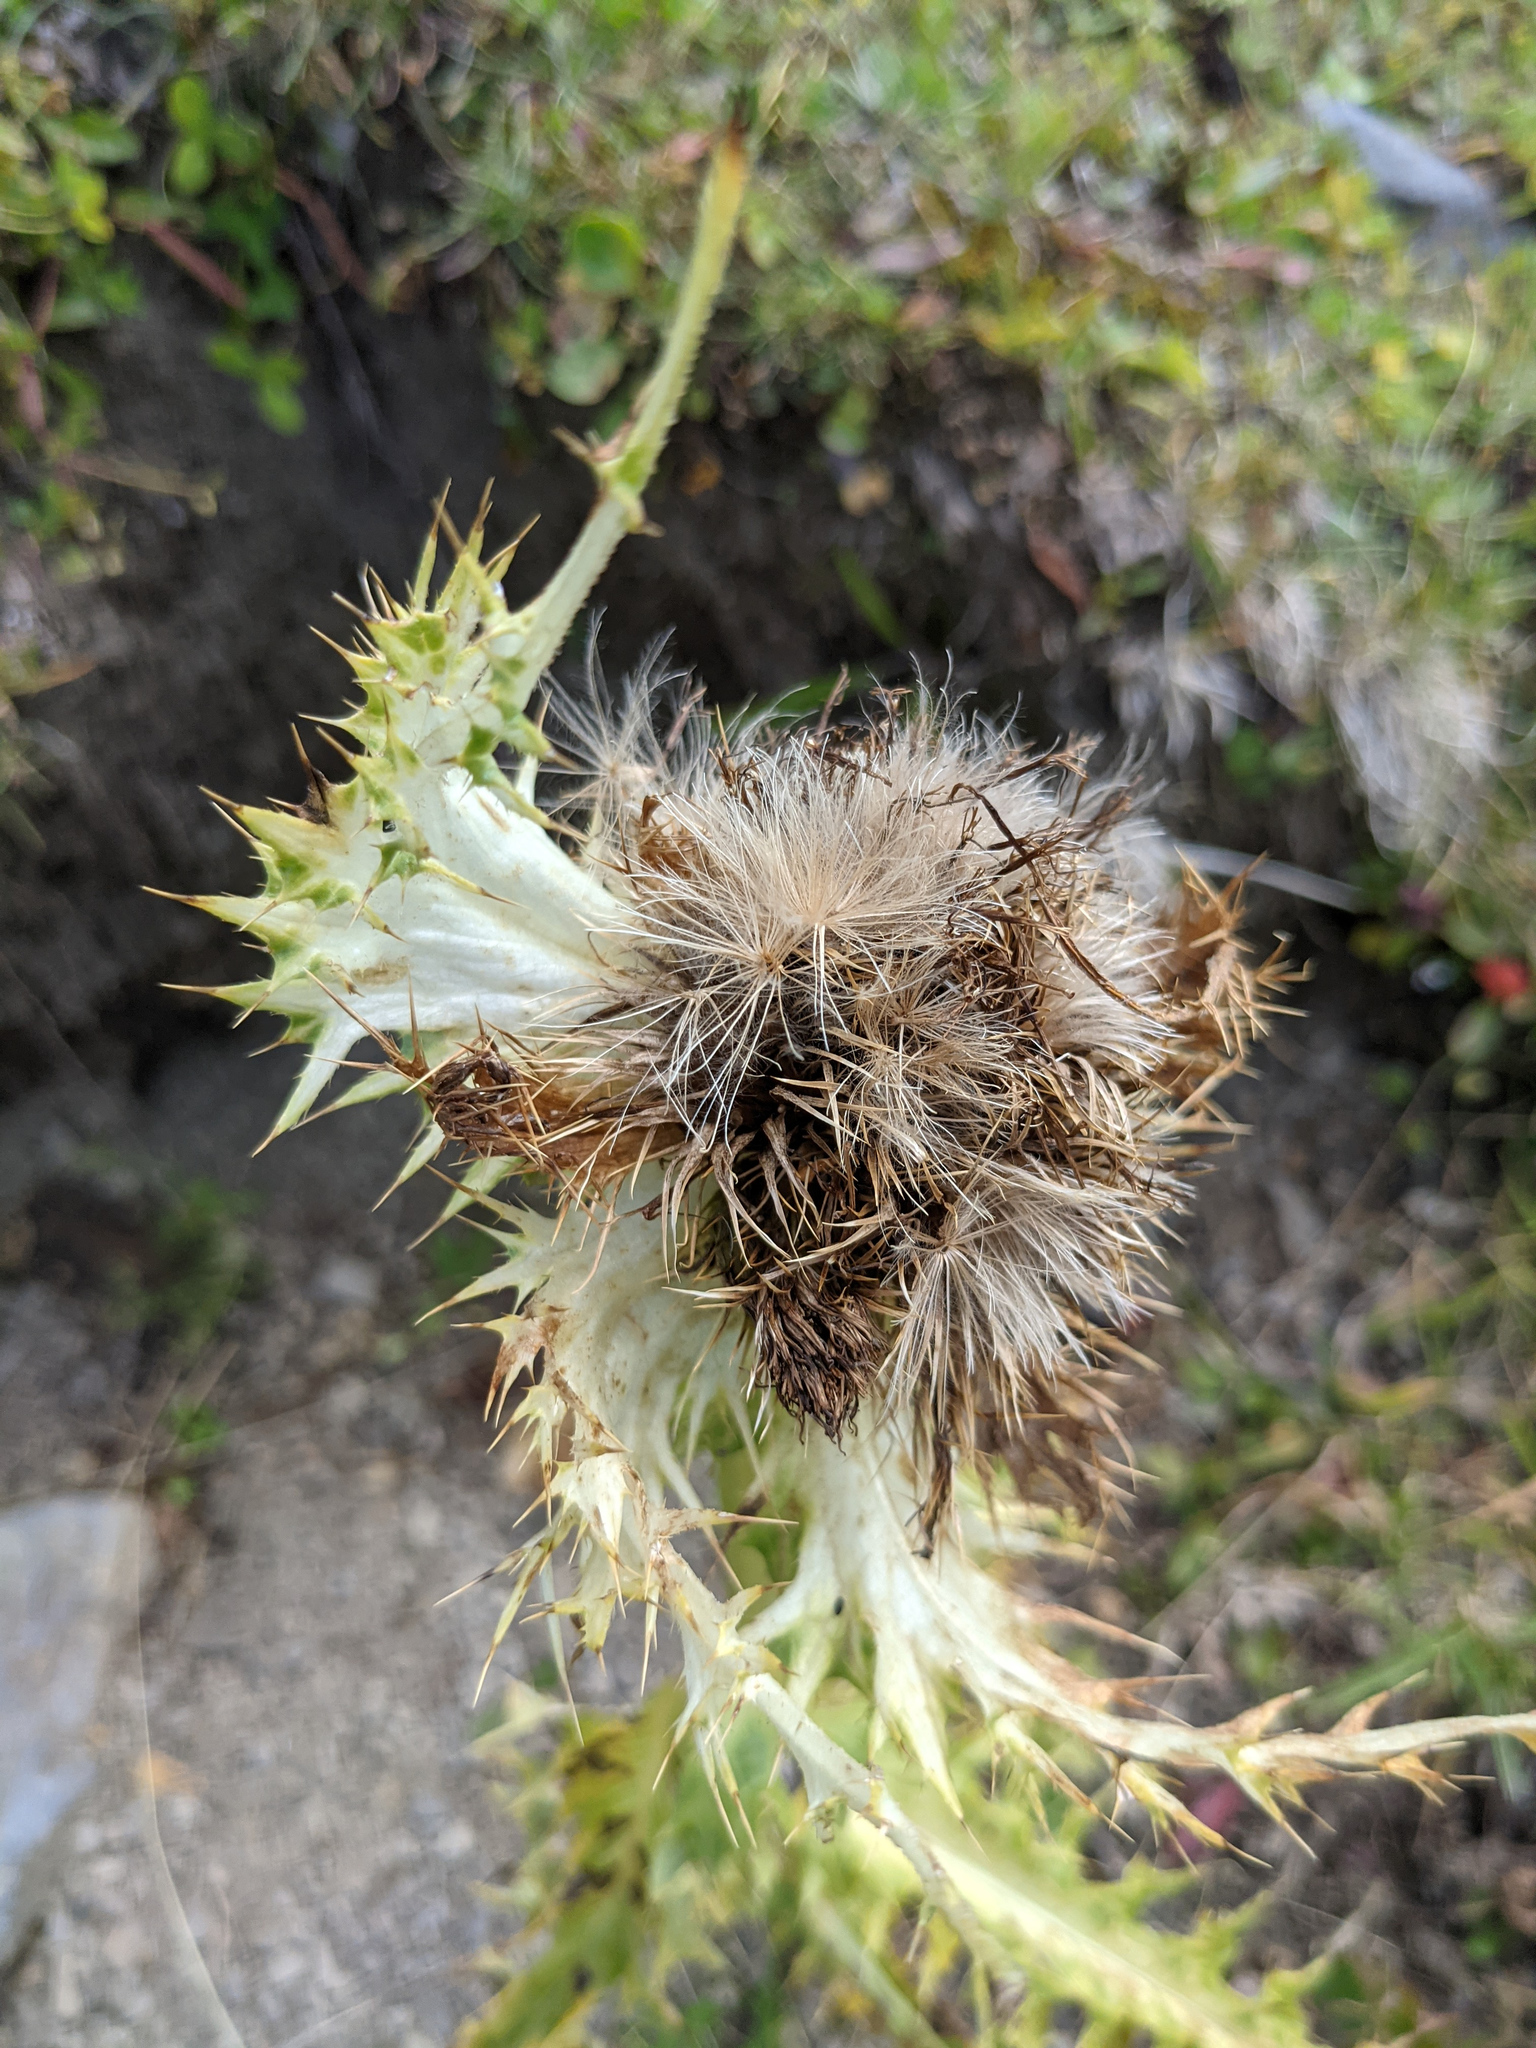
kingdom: Plantae
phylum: Tracheophyta
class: Magnoliopsida
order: Asterales
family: Asteraceae
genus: Cirsium
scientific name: Cirsium spinosissimum
